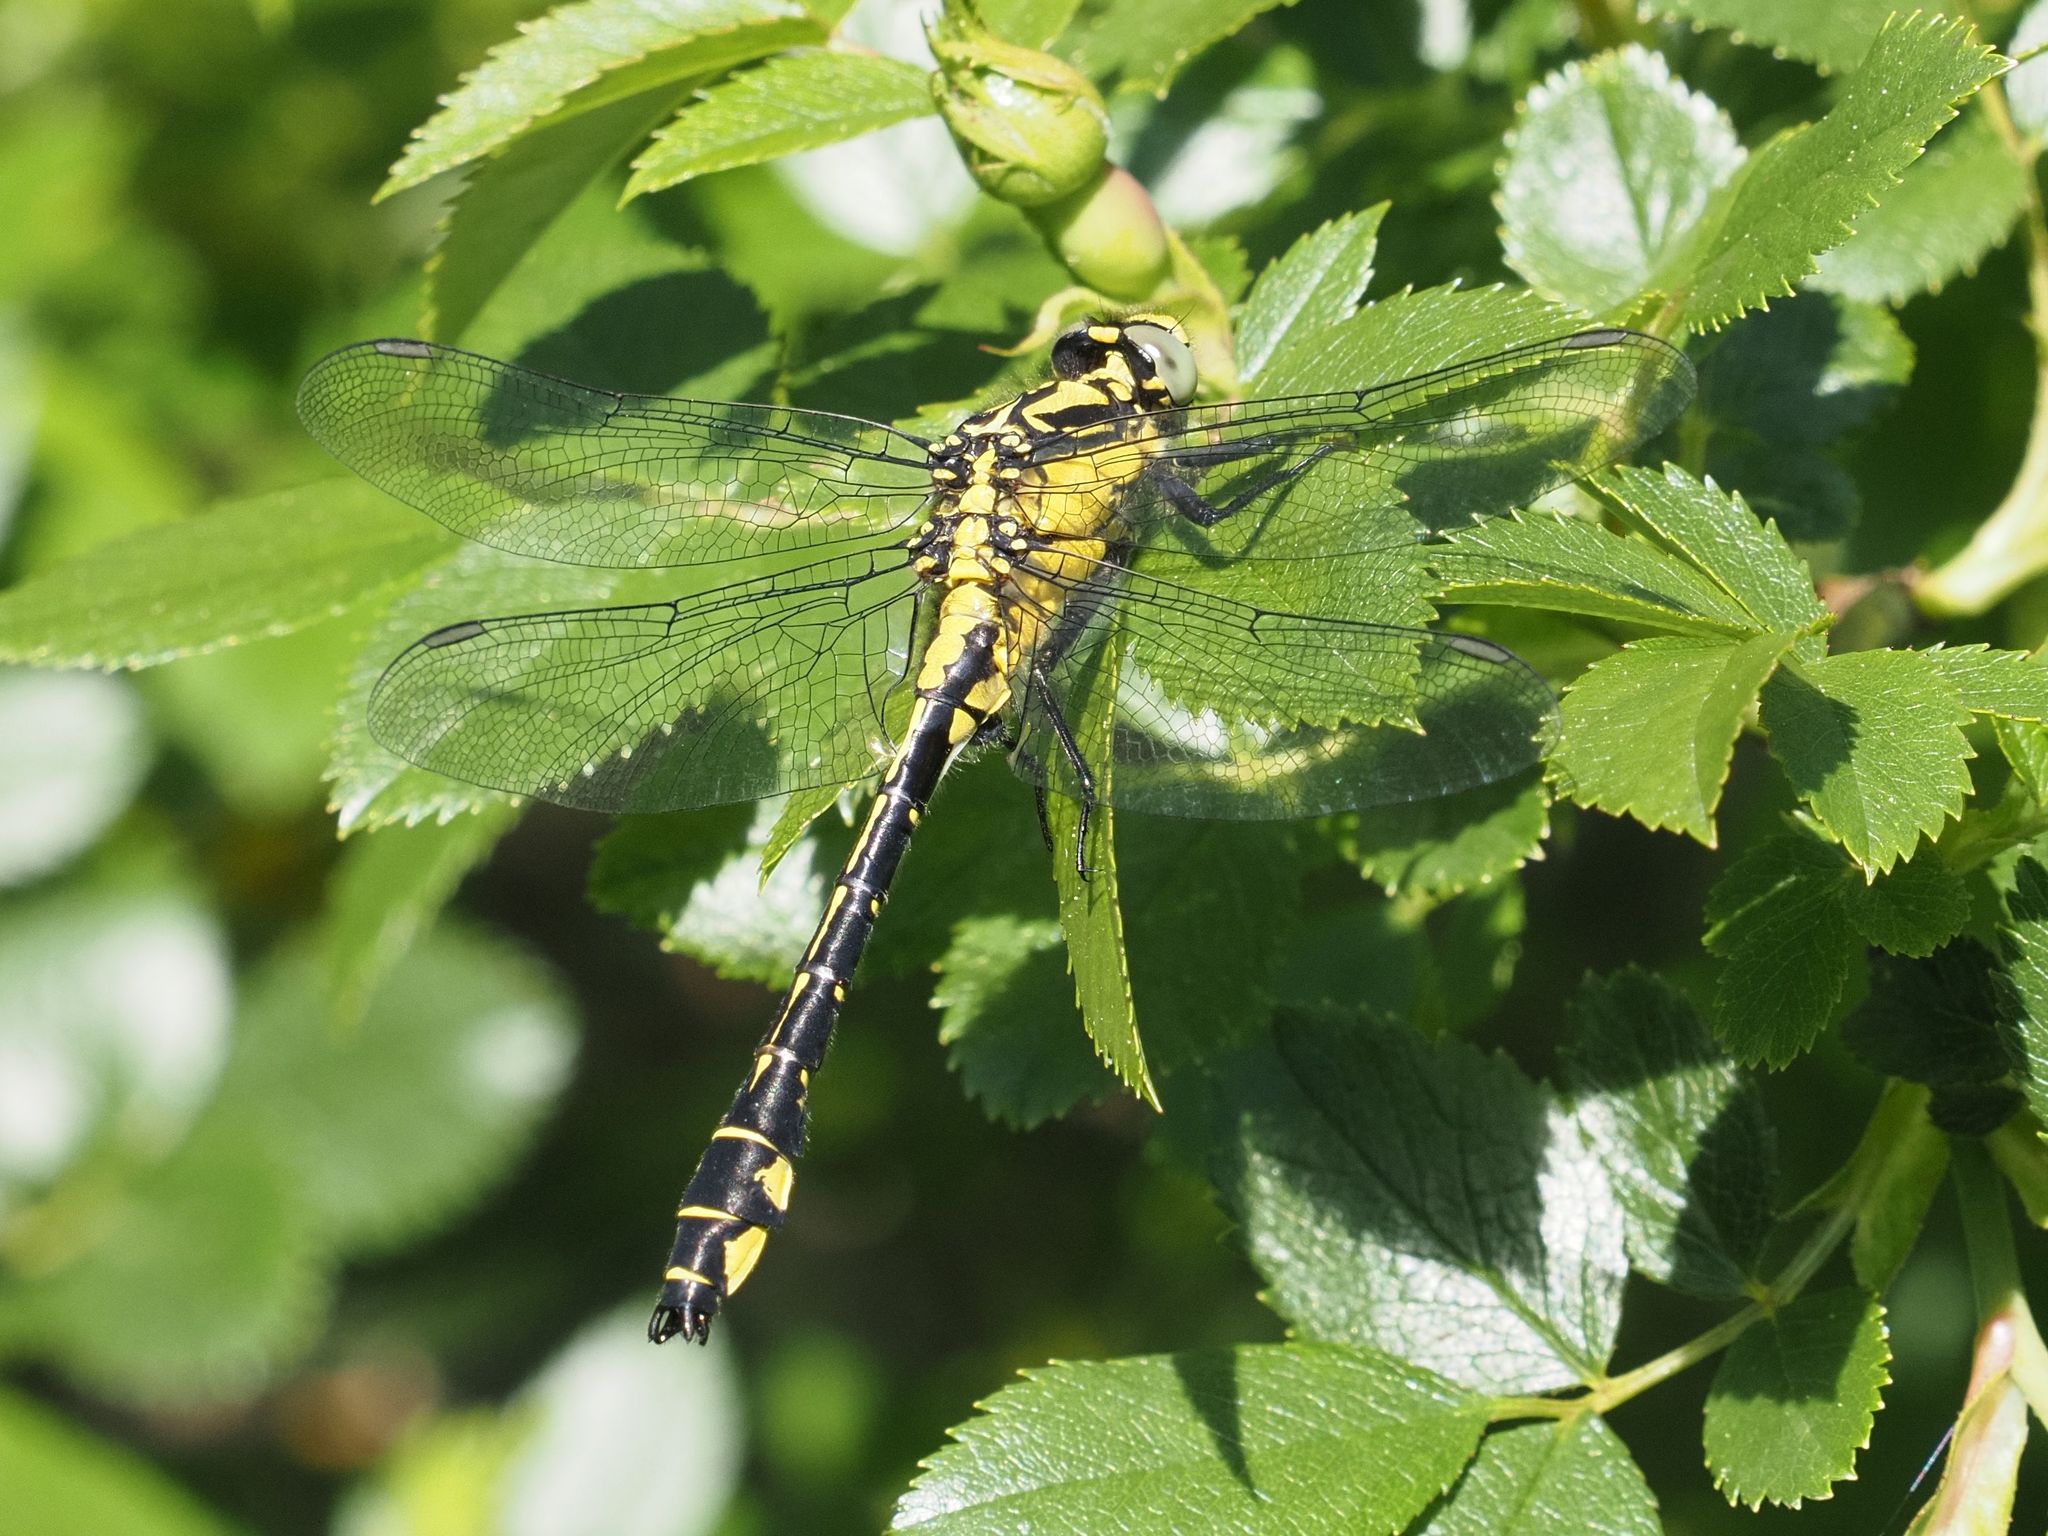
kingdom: Animalia
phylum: Arthropoda
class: Insecta
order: Odonata
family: Gomphidae
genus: Gomphus
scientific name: Gomphus vulgatissimus
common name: Club-tailed dragonfly
